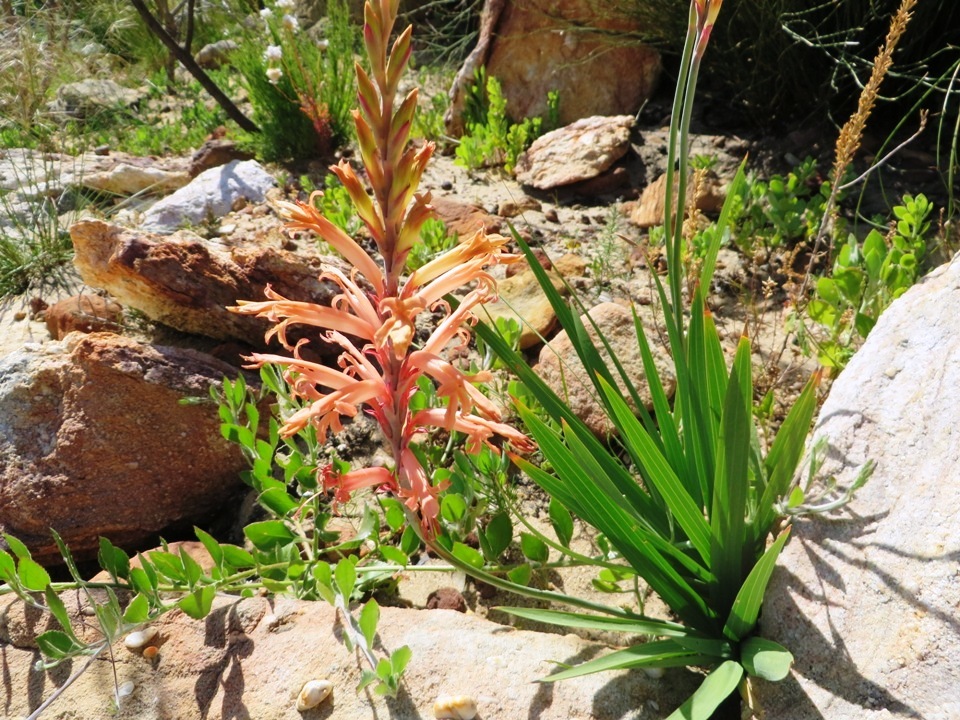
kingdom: Plantae
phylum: Tracheophyta
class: Liliopsida
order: Asparagales
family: Iridaceae
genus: Tritoniopsis
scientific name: Tritoniopsis antholyza
